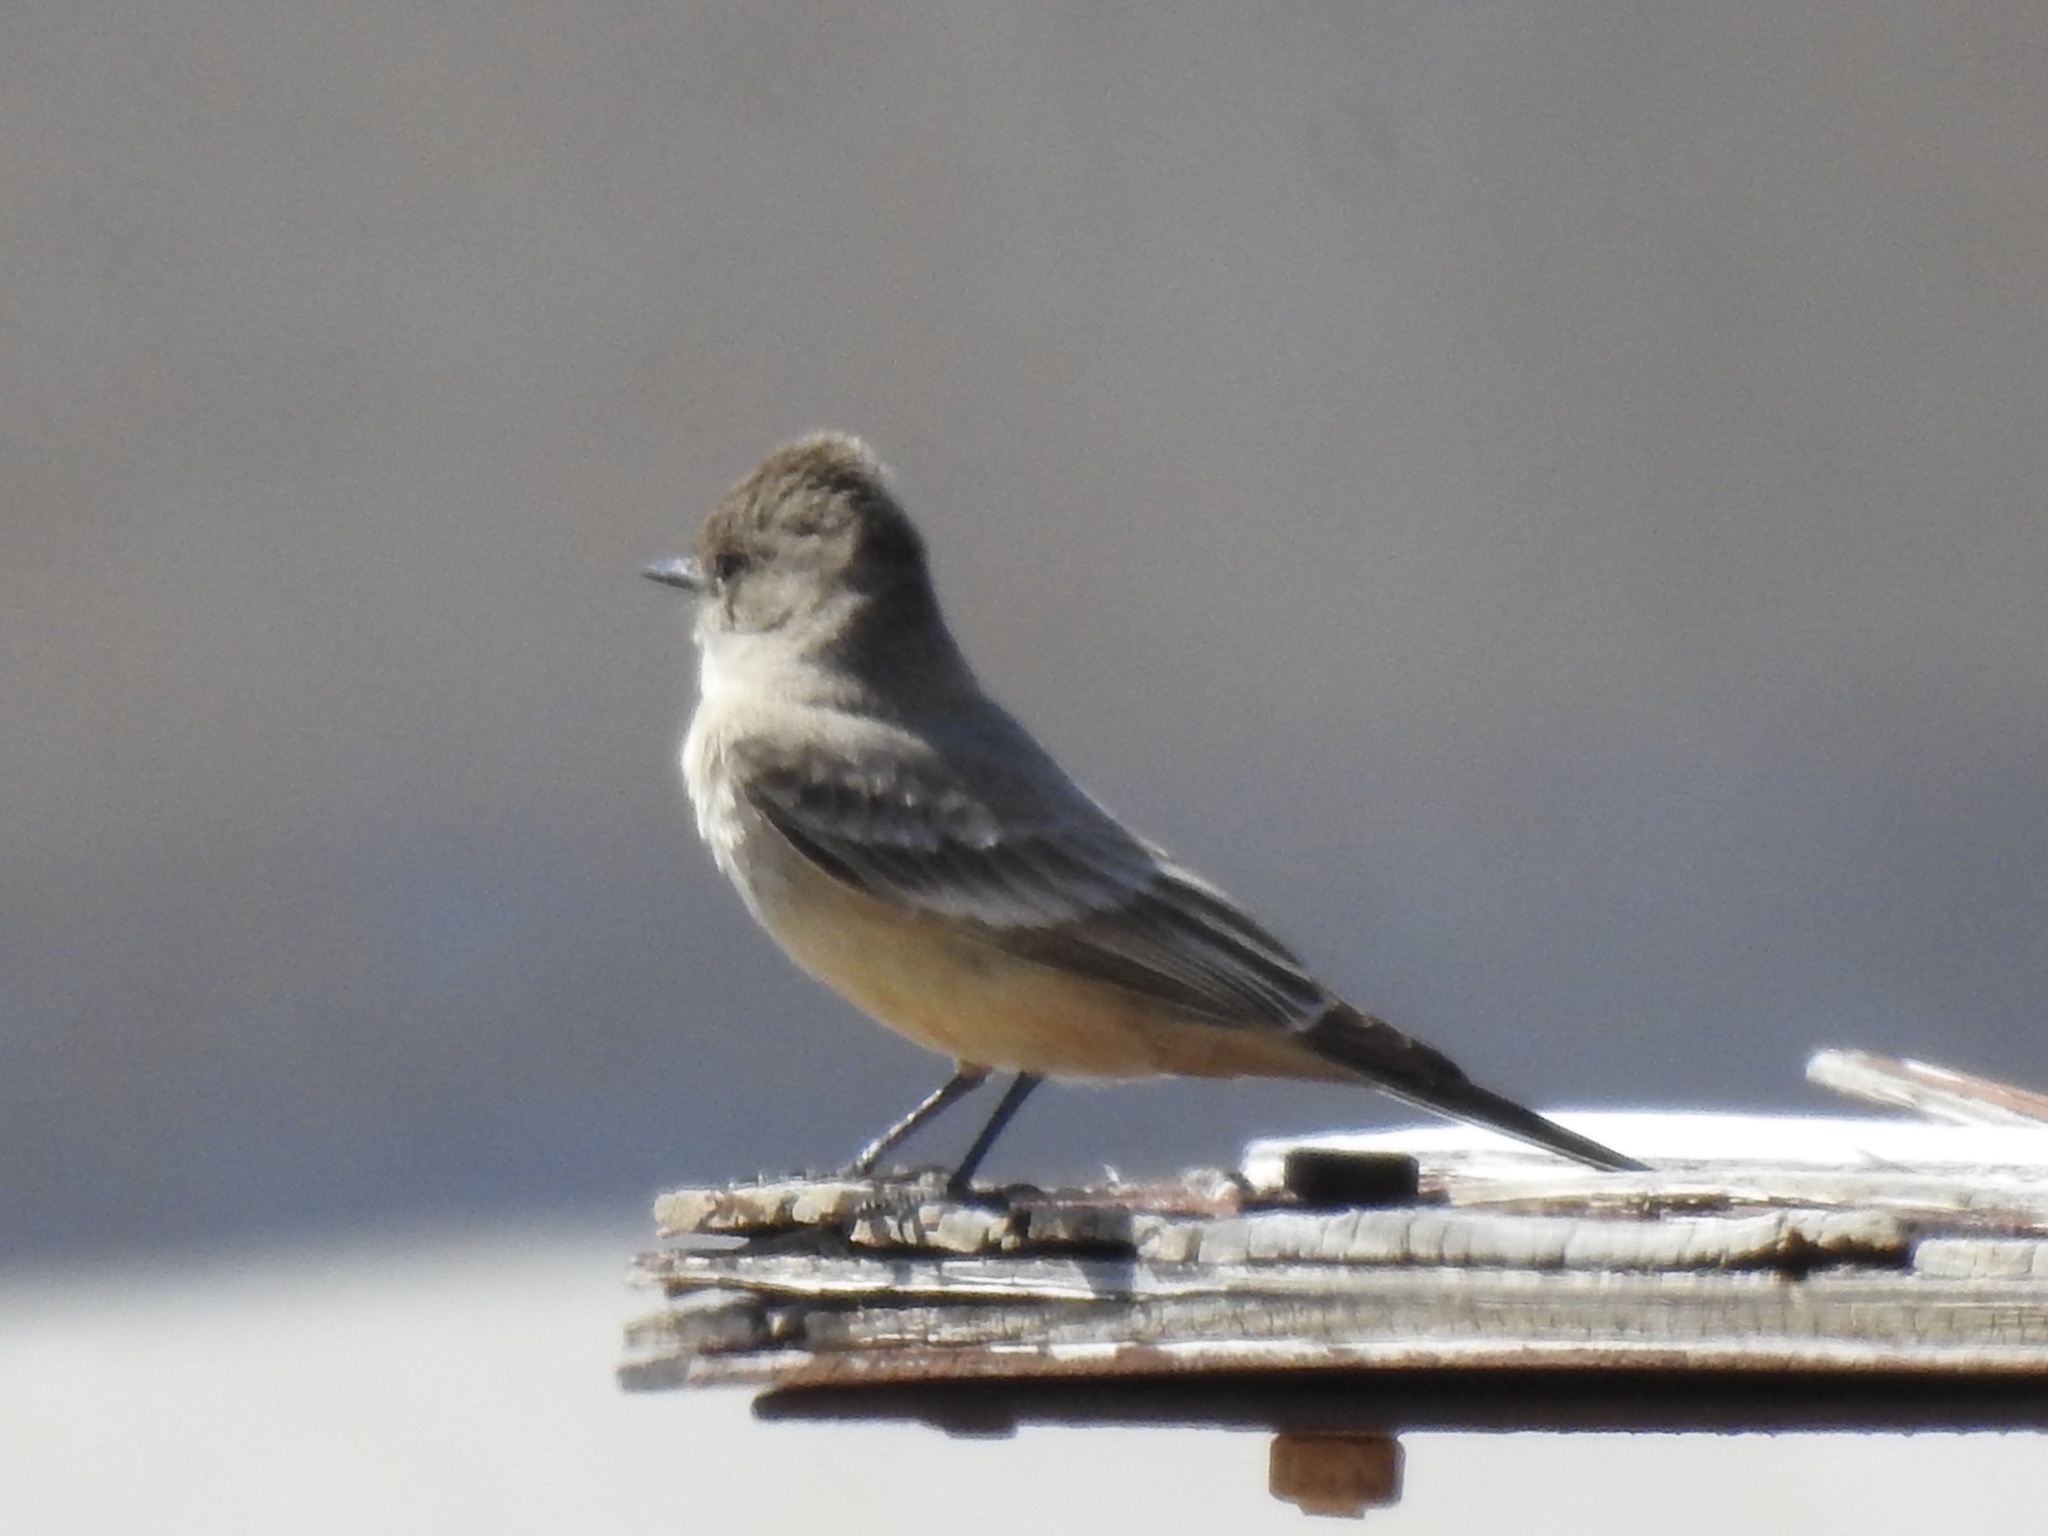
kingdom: Animalia
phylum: Chordata
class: Aves
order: Passeriformes
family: Tyrannidae
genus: Sayornis
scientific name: Sayornis saya
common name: Say's phoebe
